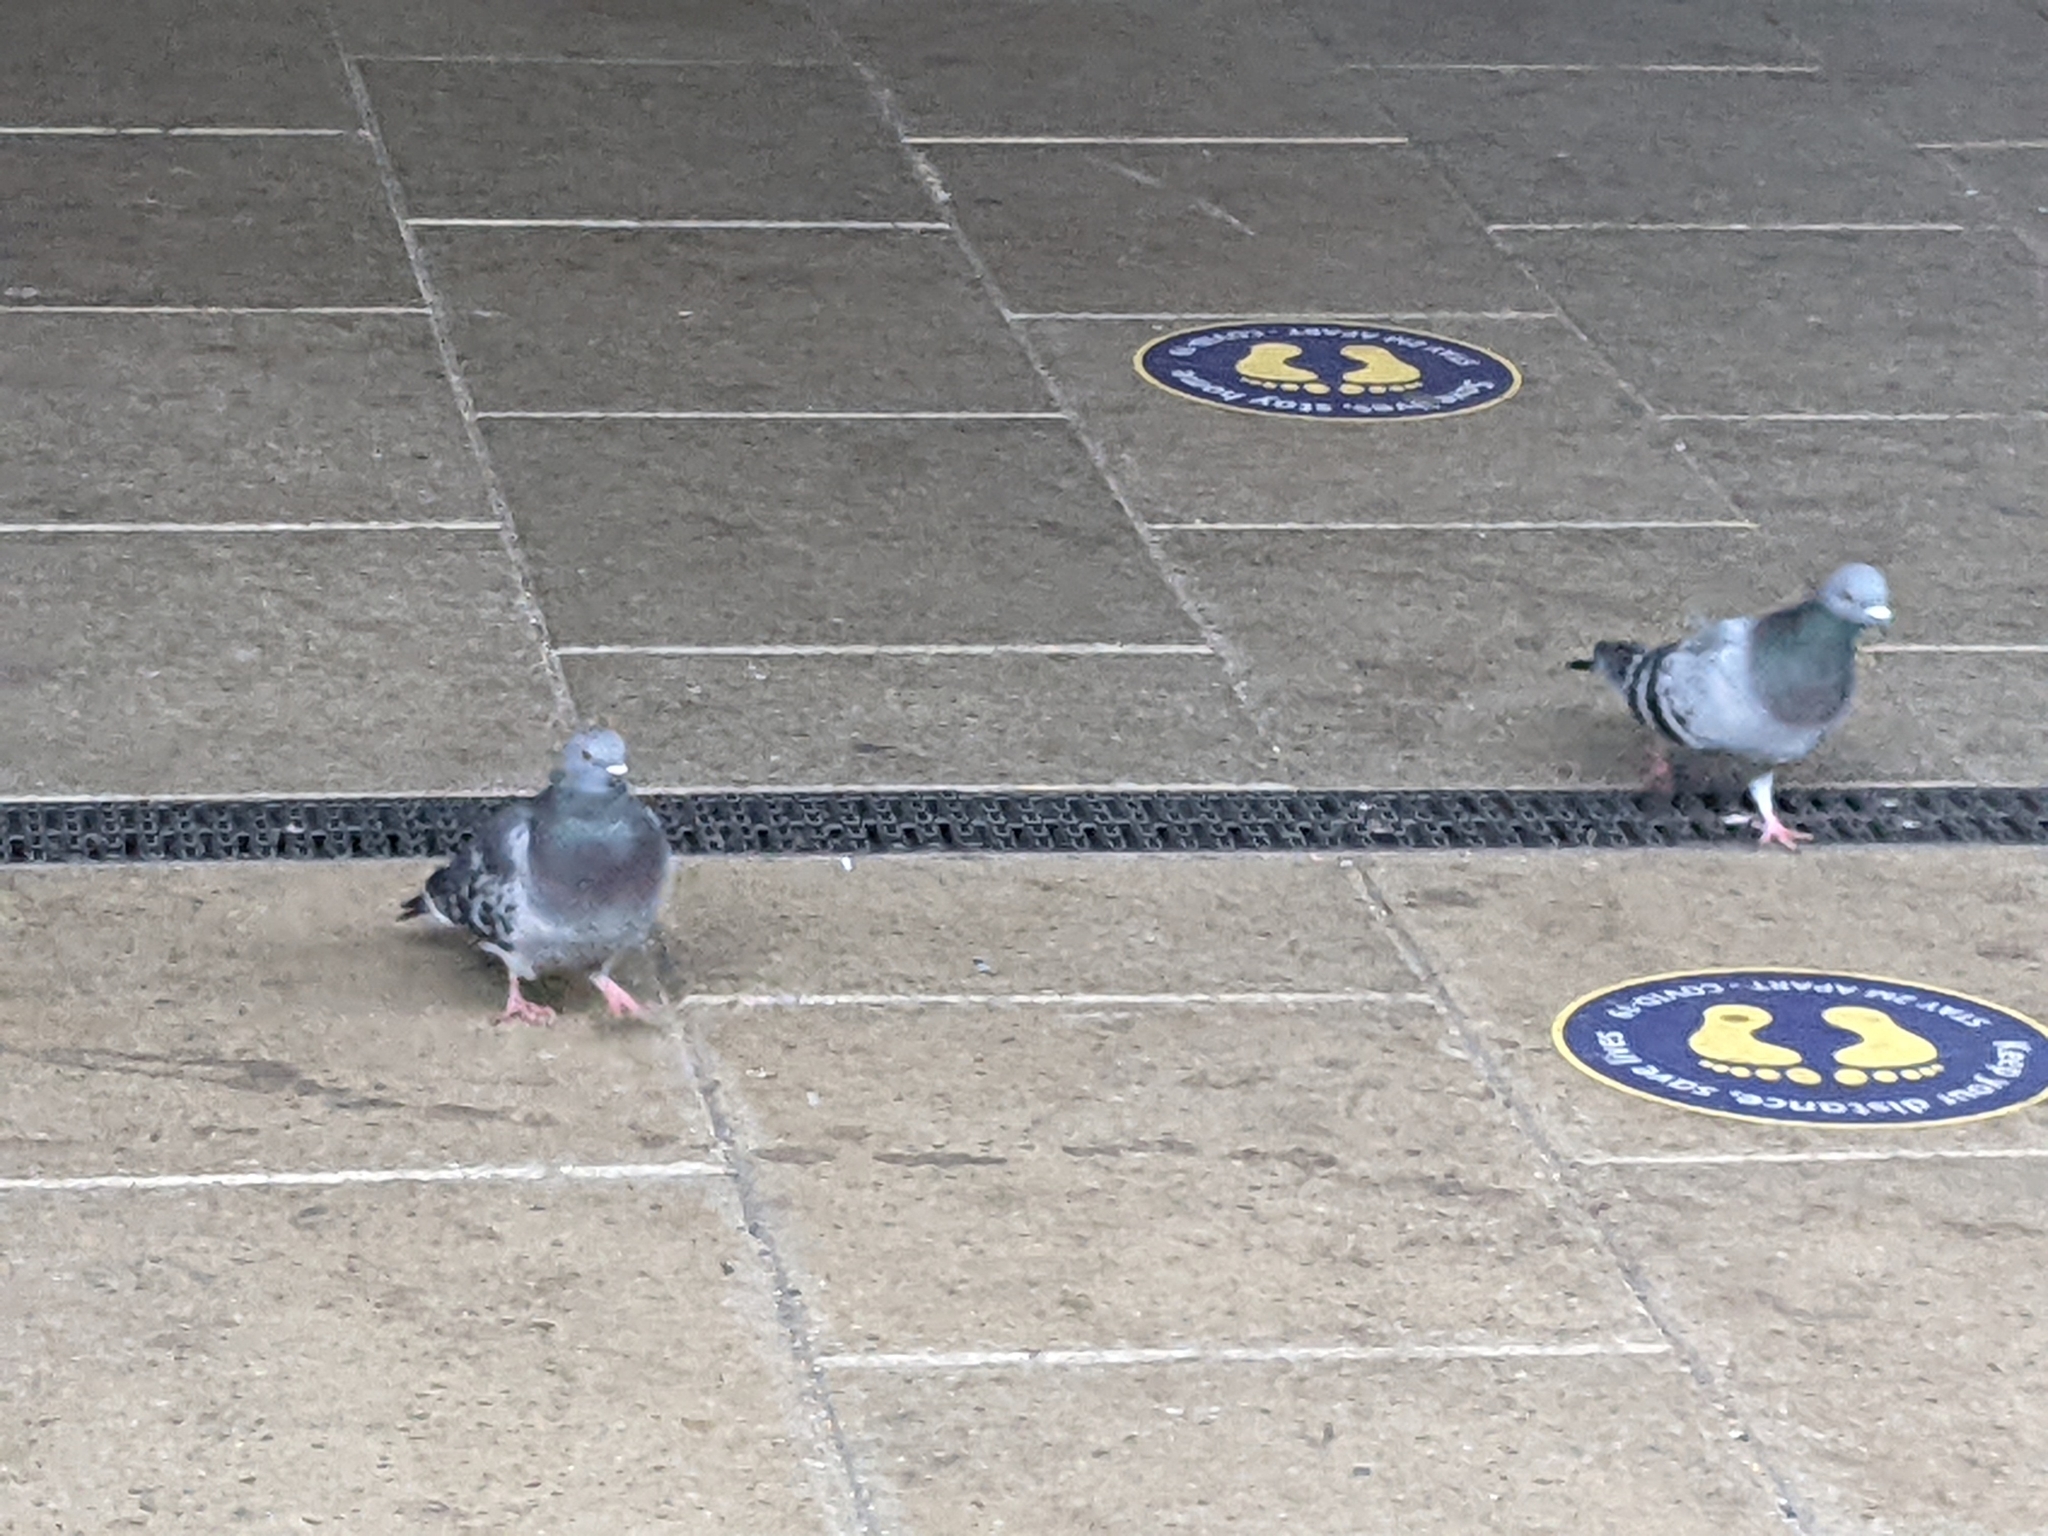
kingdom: Animalia
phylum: Chordata
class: Aves
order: Columbiformes
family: Columbidae
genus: Columba
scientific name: Columba livia
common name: Rock pigeon
